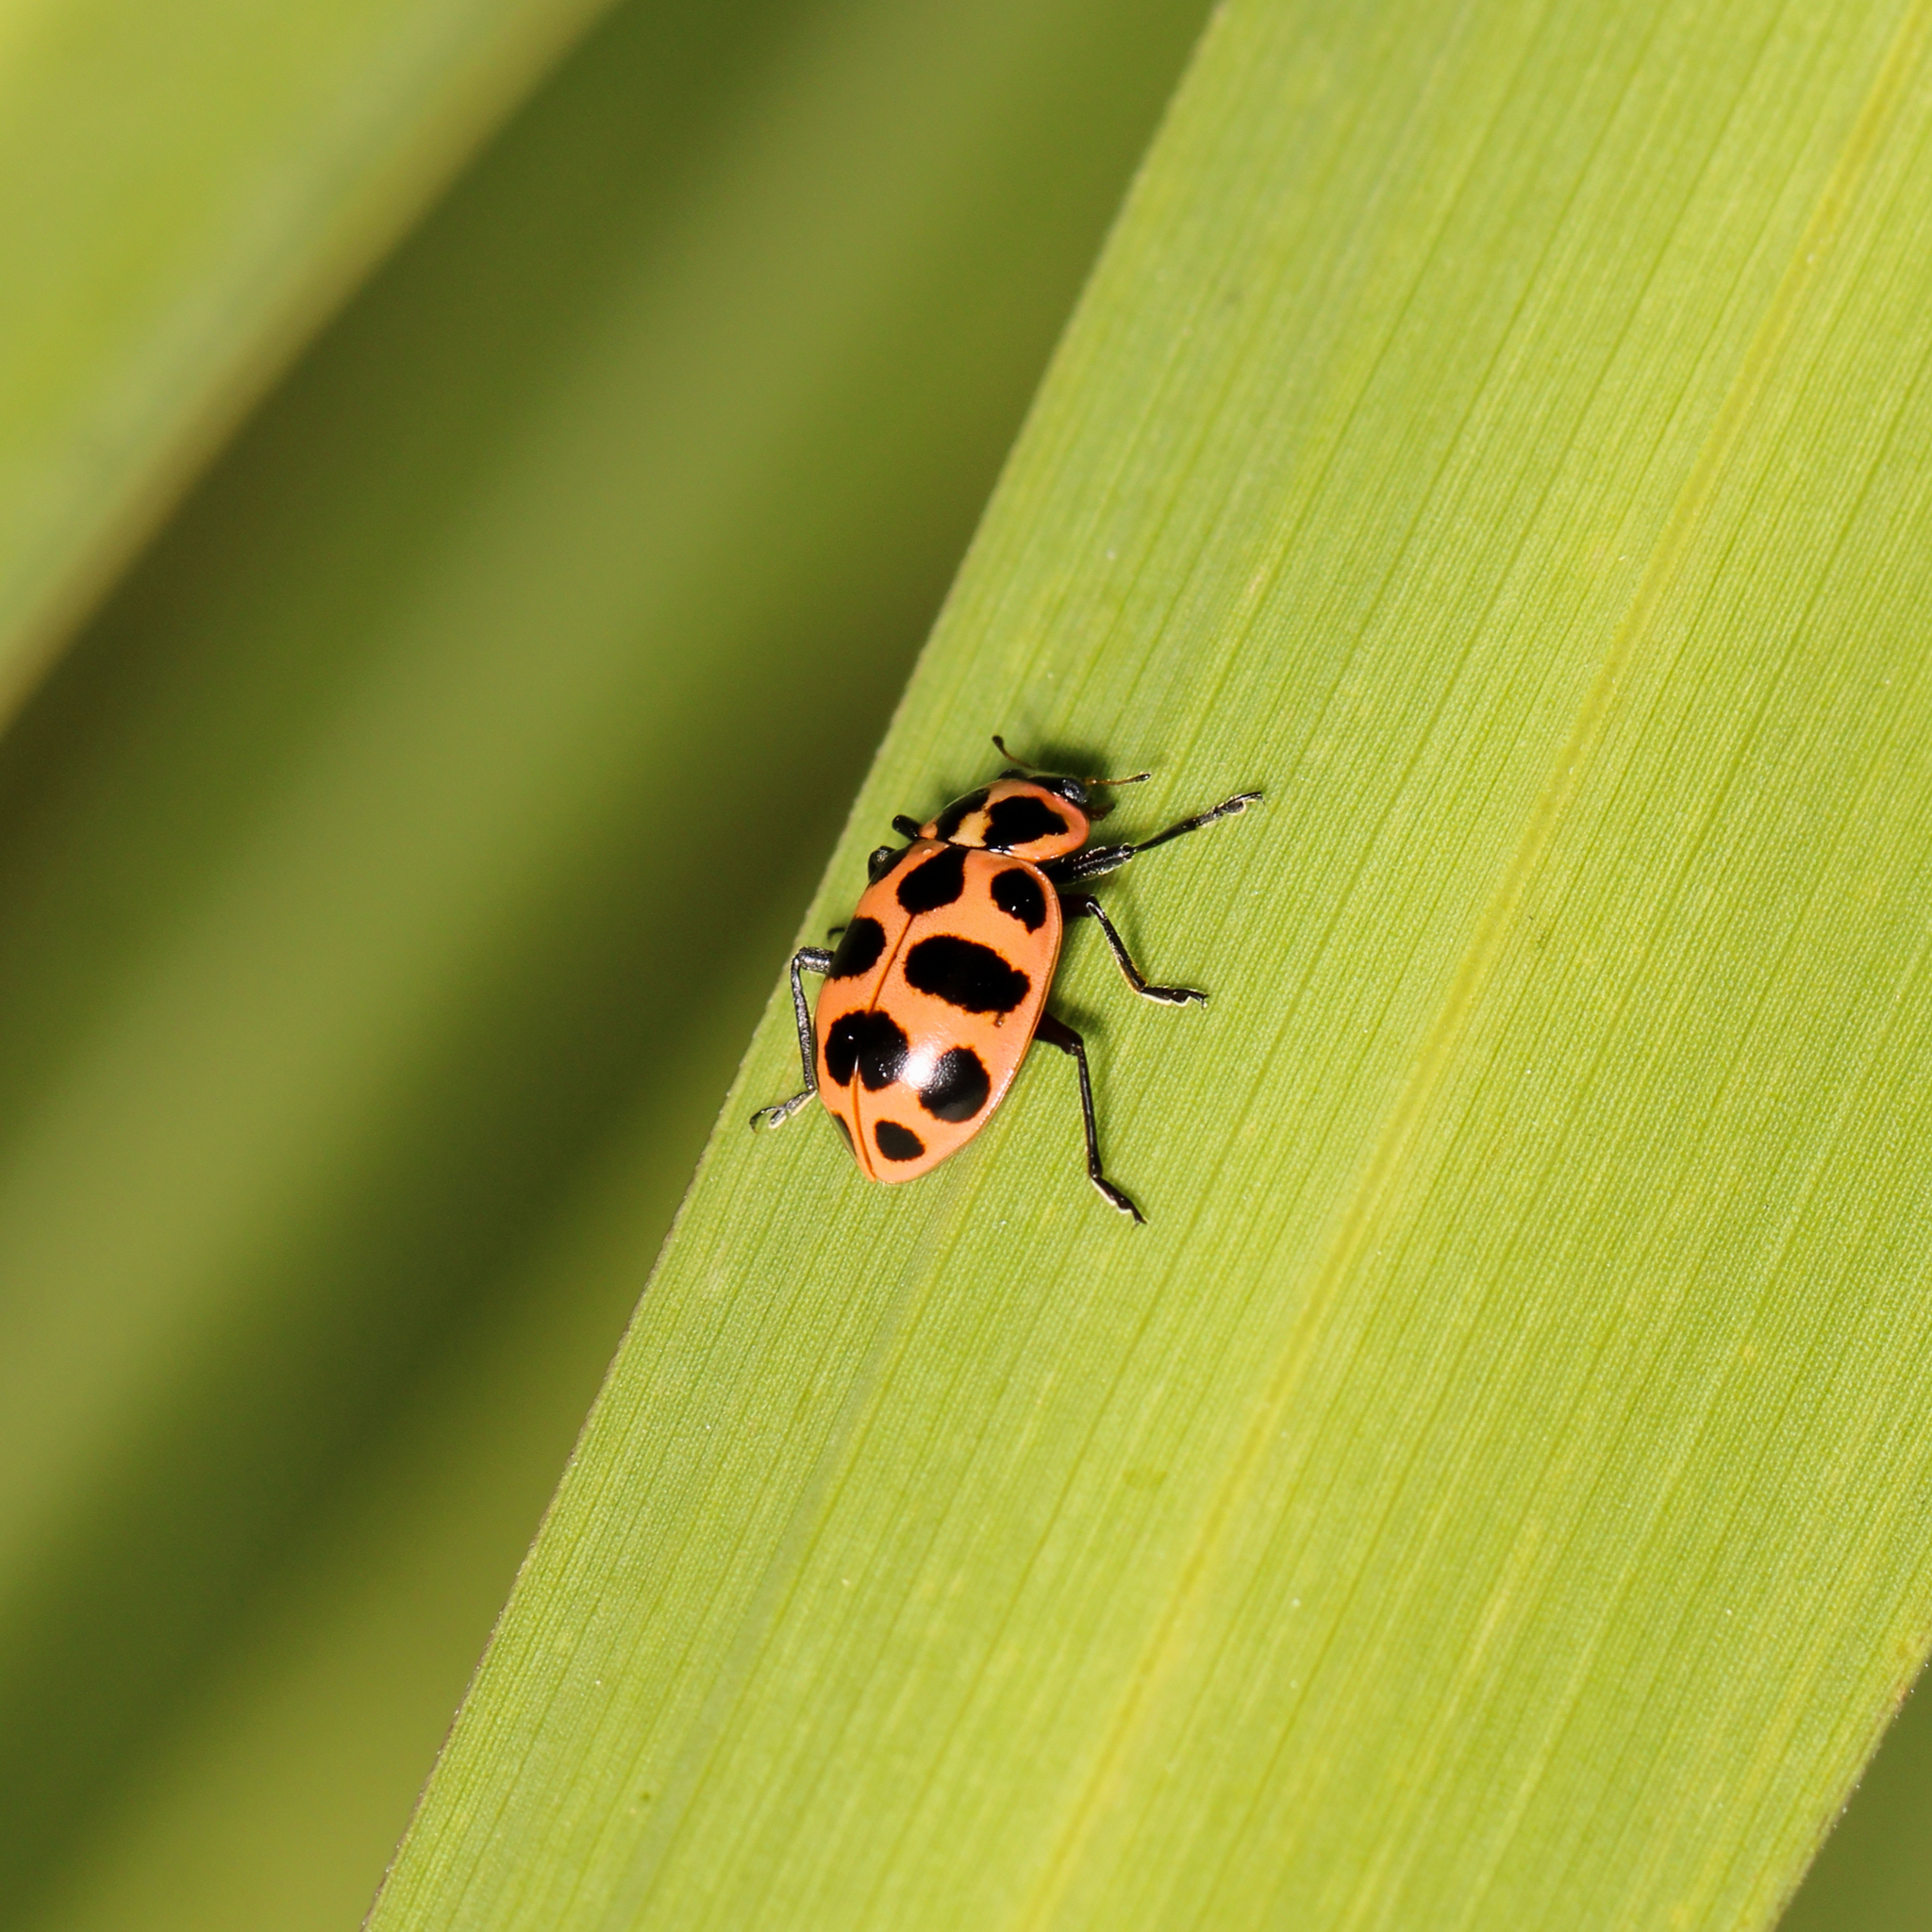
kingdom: Animalia
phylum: Arthropoda
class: Insecta
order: Coleoptera
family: Coccinellidae
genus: Coleomegilla
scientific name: Coleomegilla maculata
